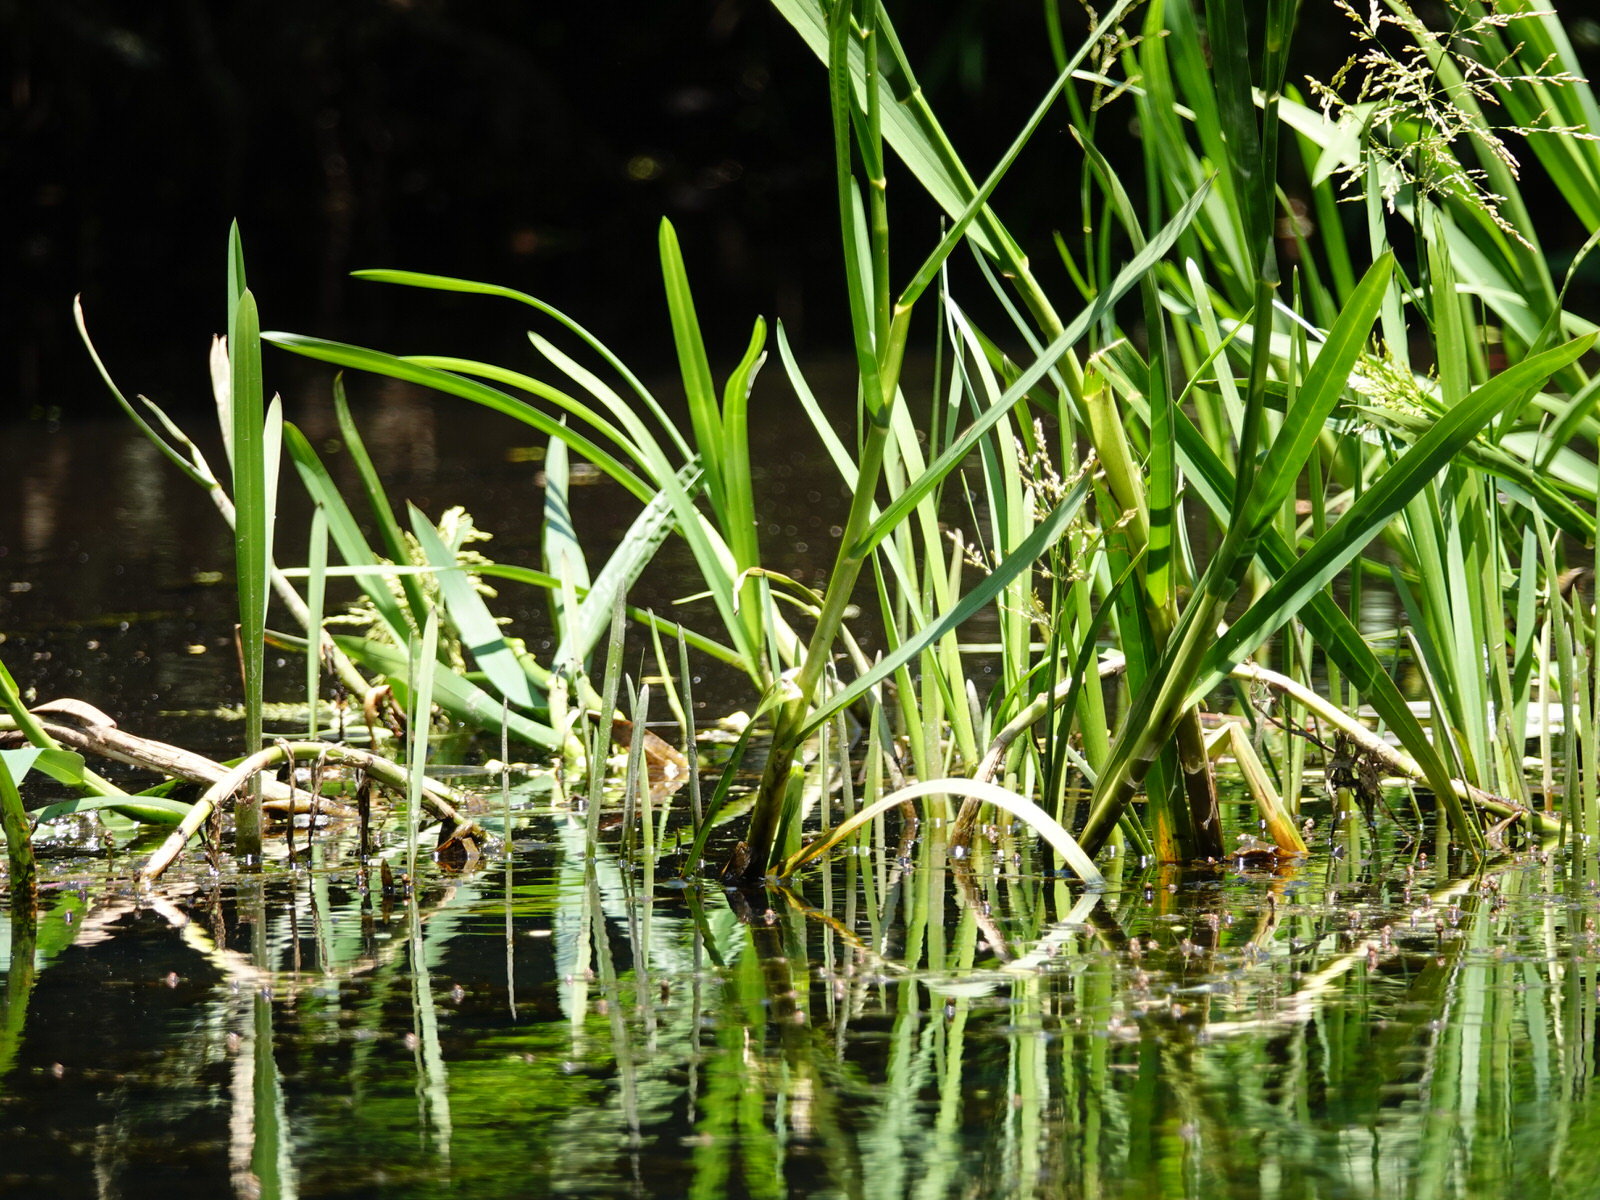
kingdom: Plantae
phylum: Tracheophyta
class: Liliopsida
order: Poales
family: Poaceae
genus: Glyceria
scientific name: Glyceria maxima
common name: Reed mannagrass
